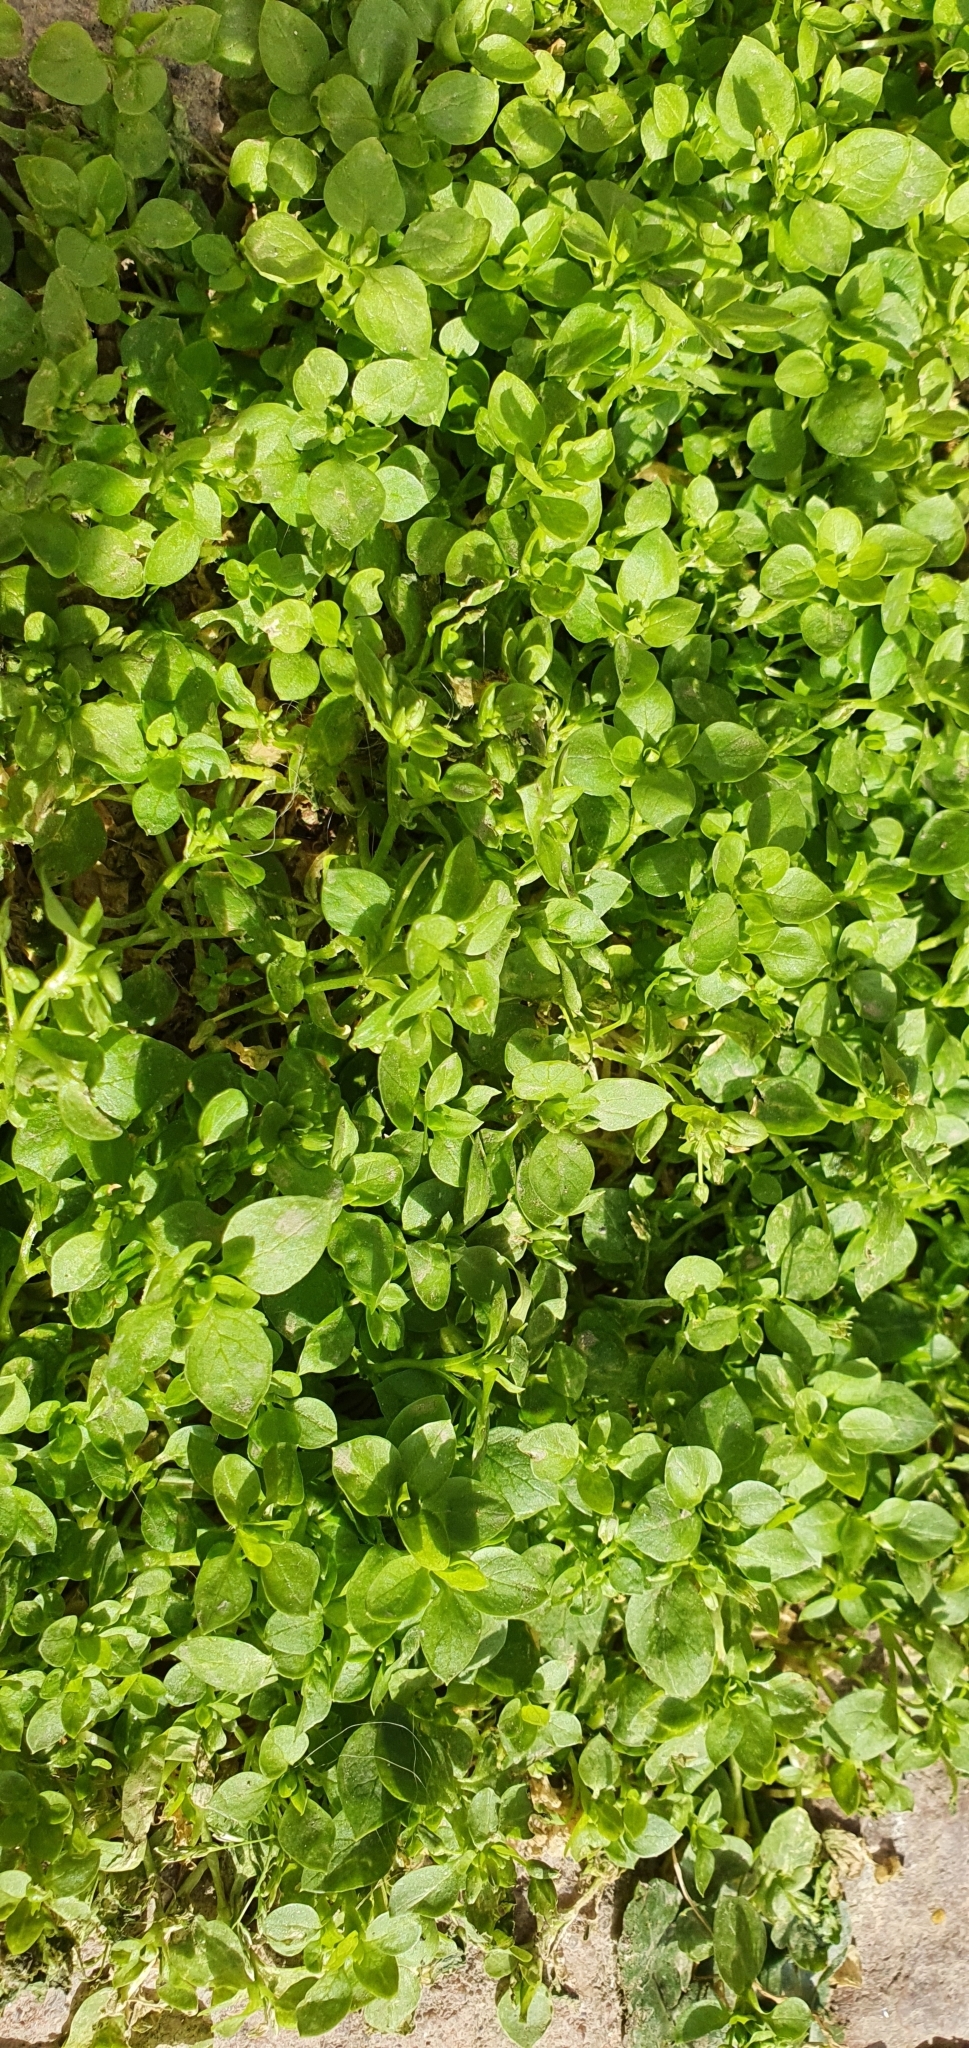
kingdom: Plantae
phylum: Tracheophyta
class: Magnoliopsida
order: Caryophyllales
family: Caryophyllaceae
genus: Stellaria
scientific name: Stellaria apetala
